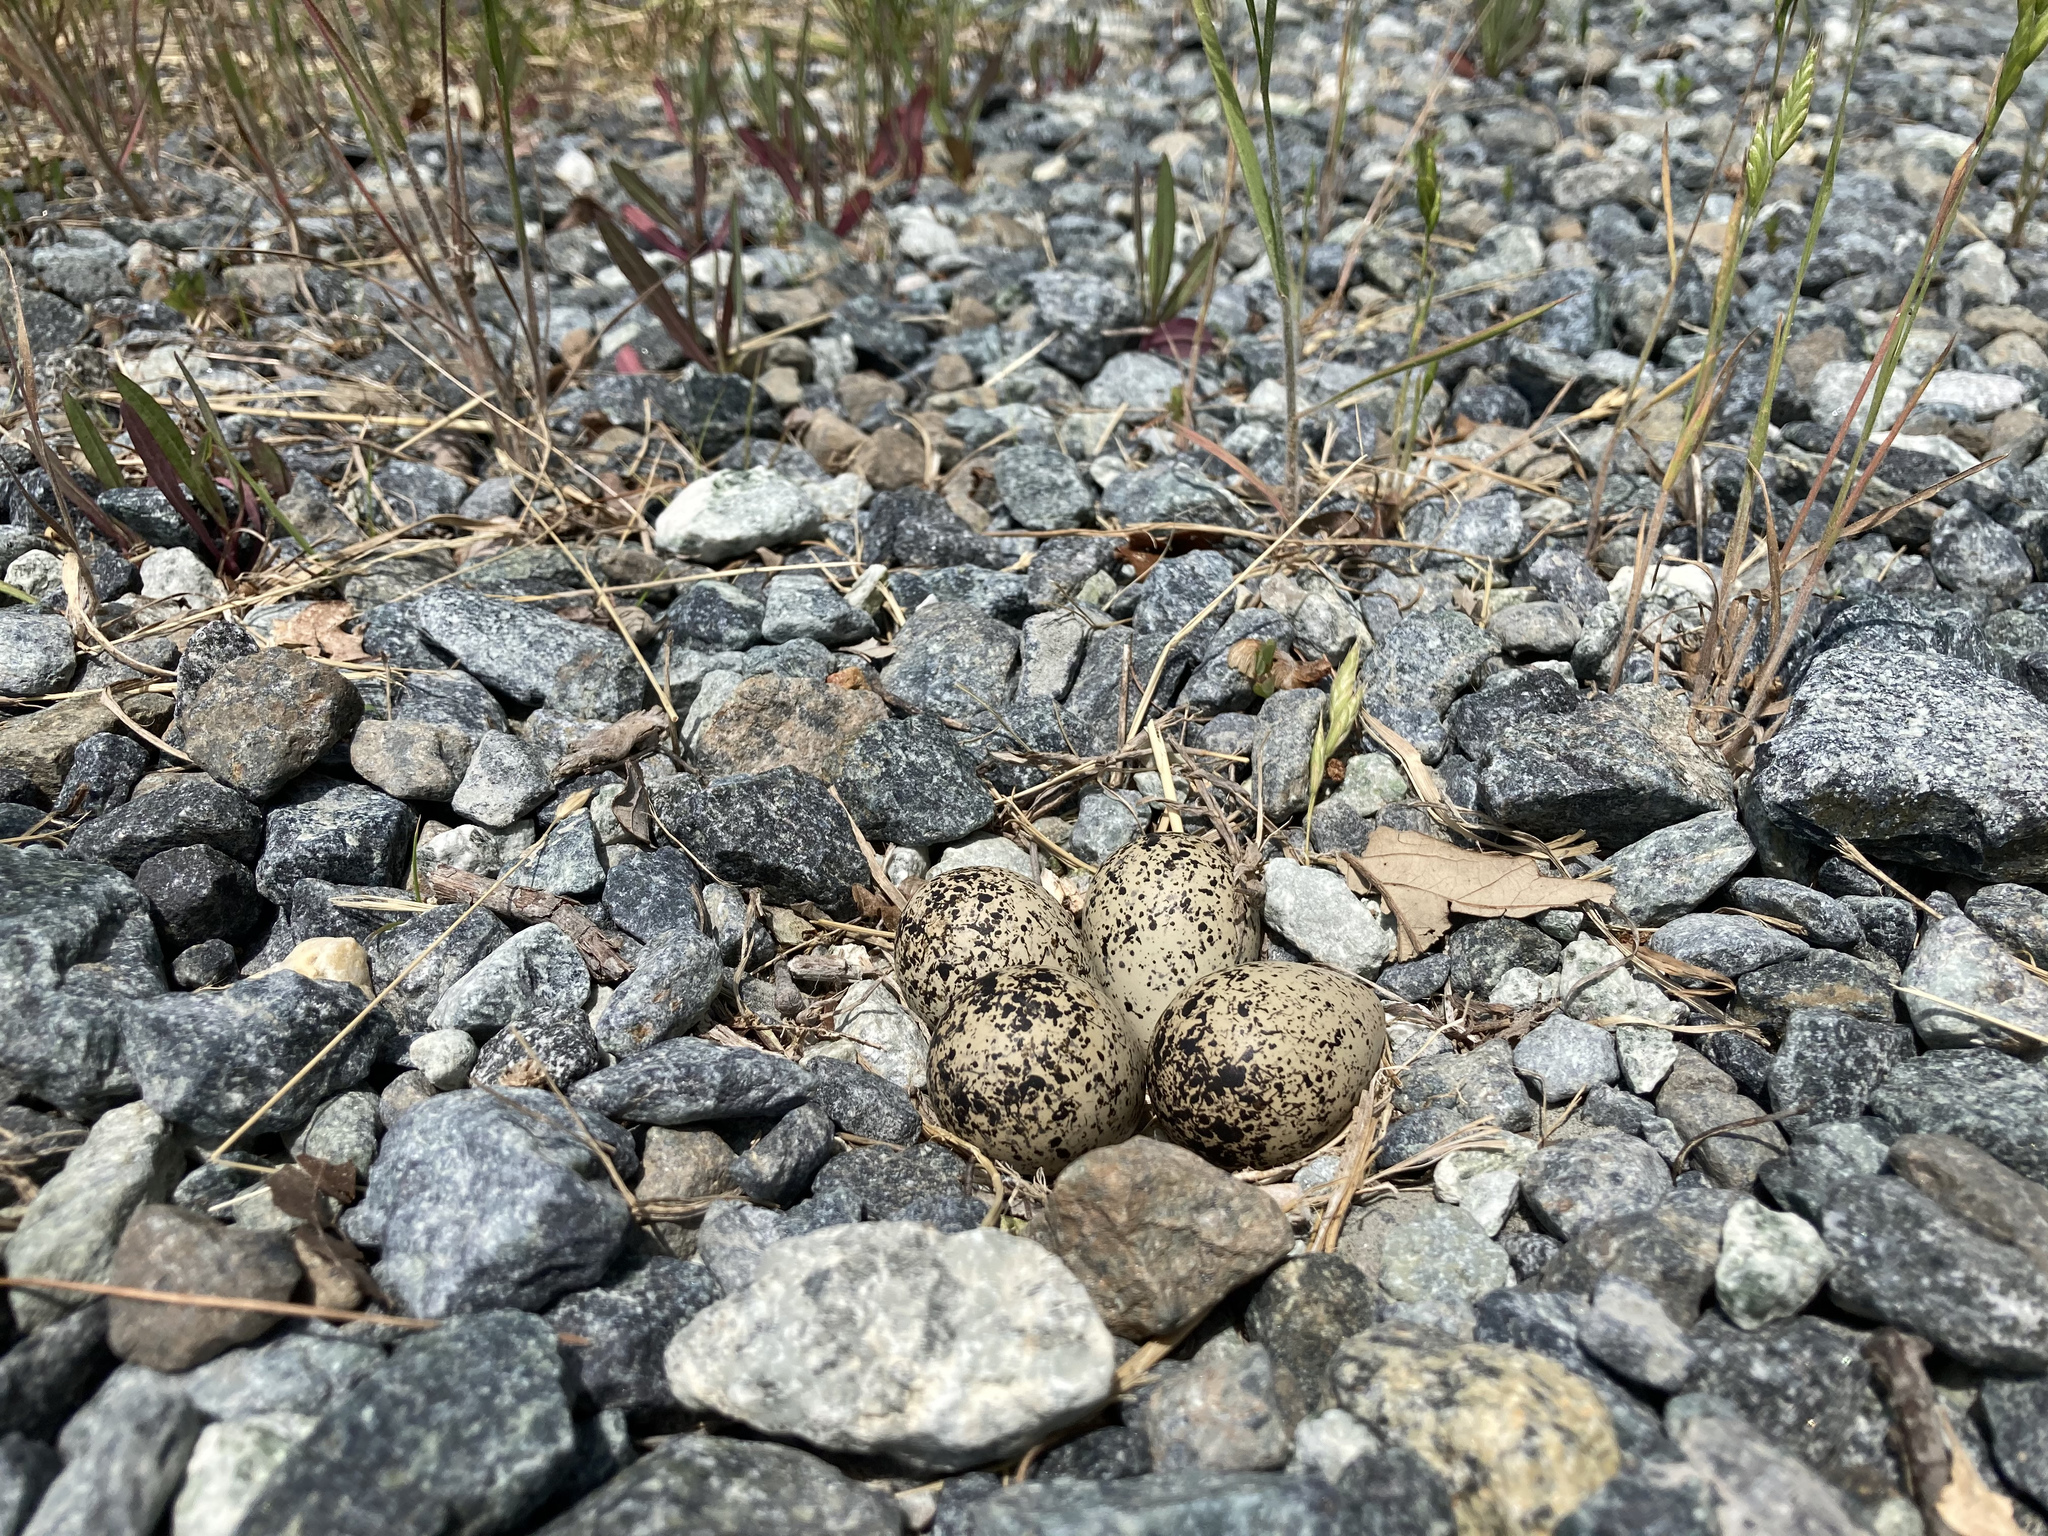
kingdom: Animalia
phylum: Chordata
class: Aves
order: Charadriiformes
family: Charadriidae
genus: Charadrius
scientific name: Charadrius vociferus
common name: Killdeer
